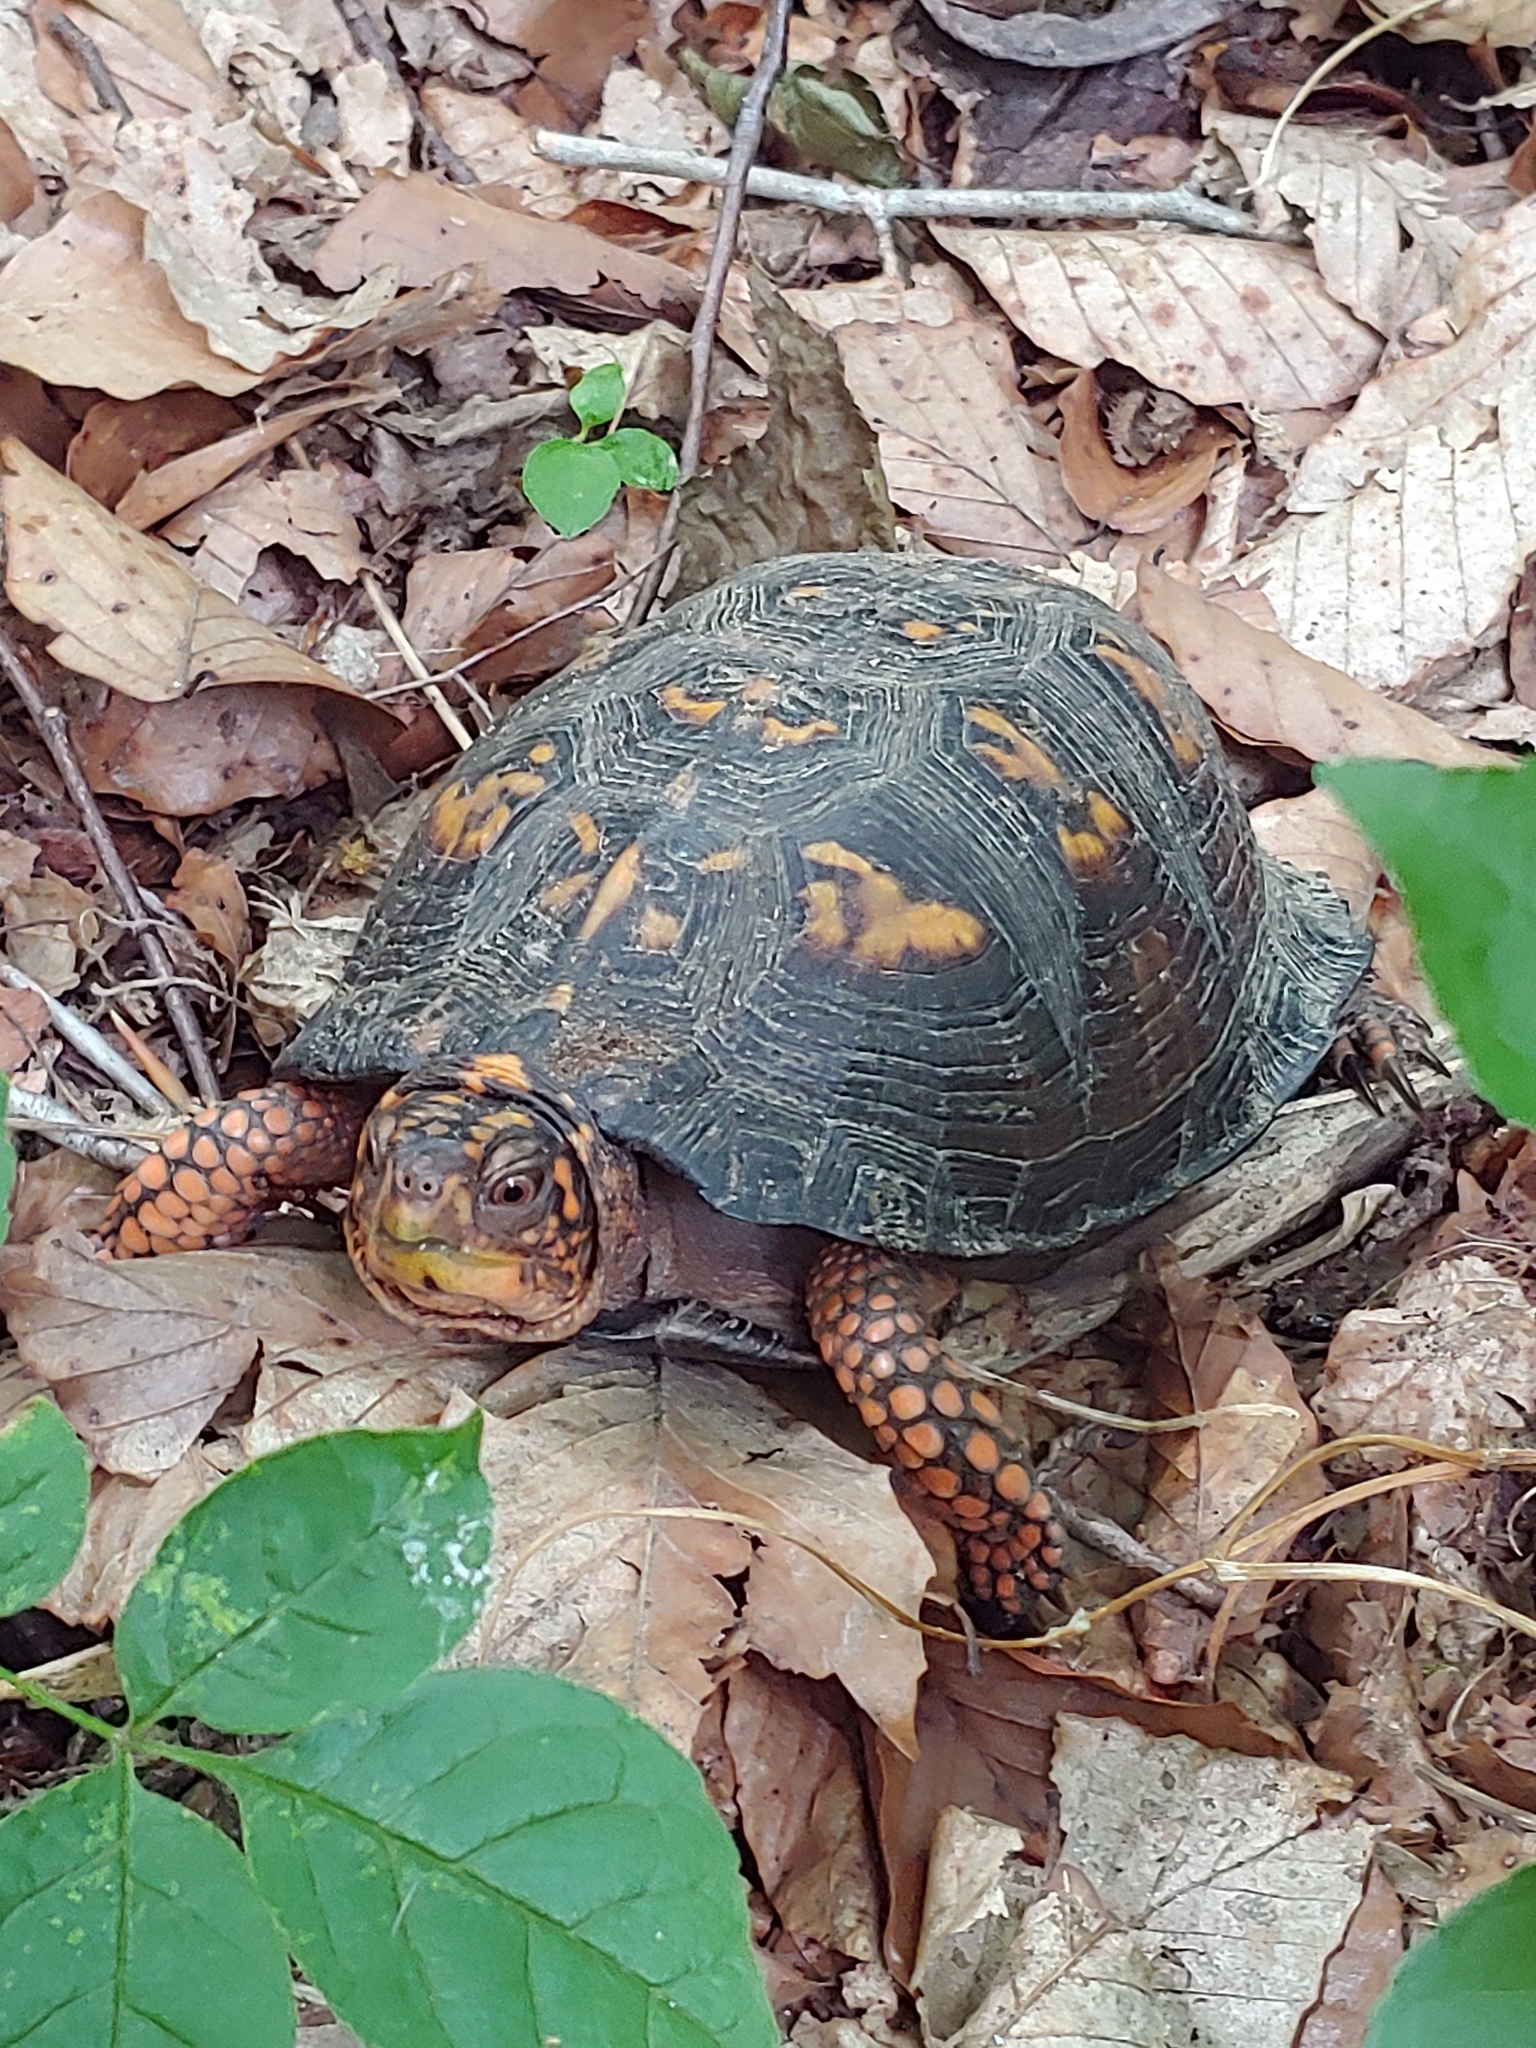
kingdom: Animalia
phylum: Chordata
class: Testudines
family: Emydidae
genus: Terrapene
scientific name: Terrapene carolina
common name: Common box turtle
